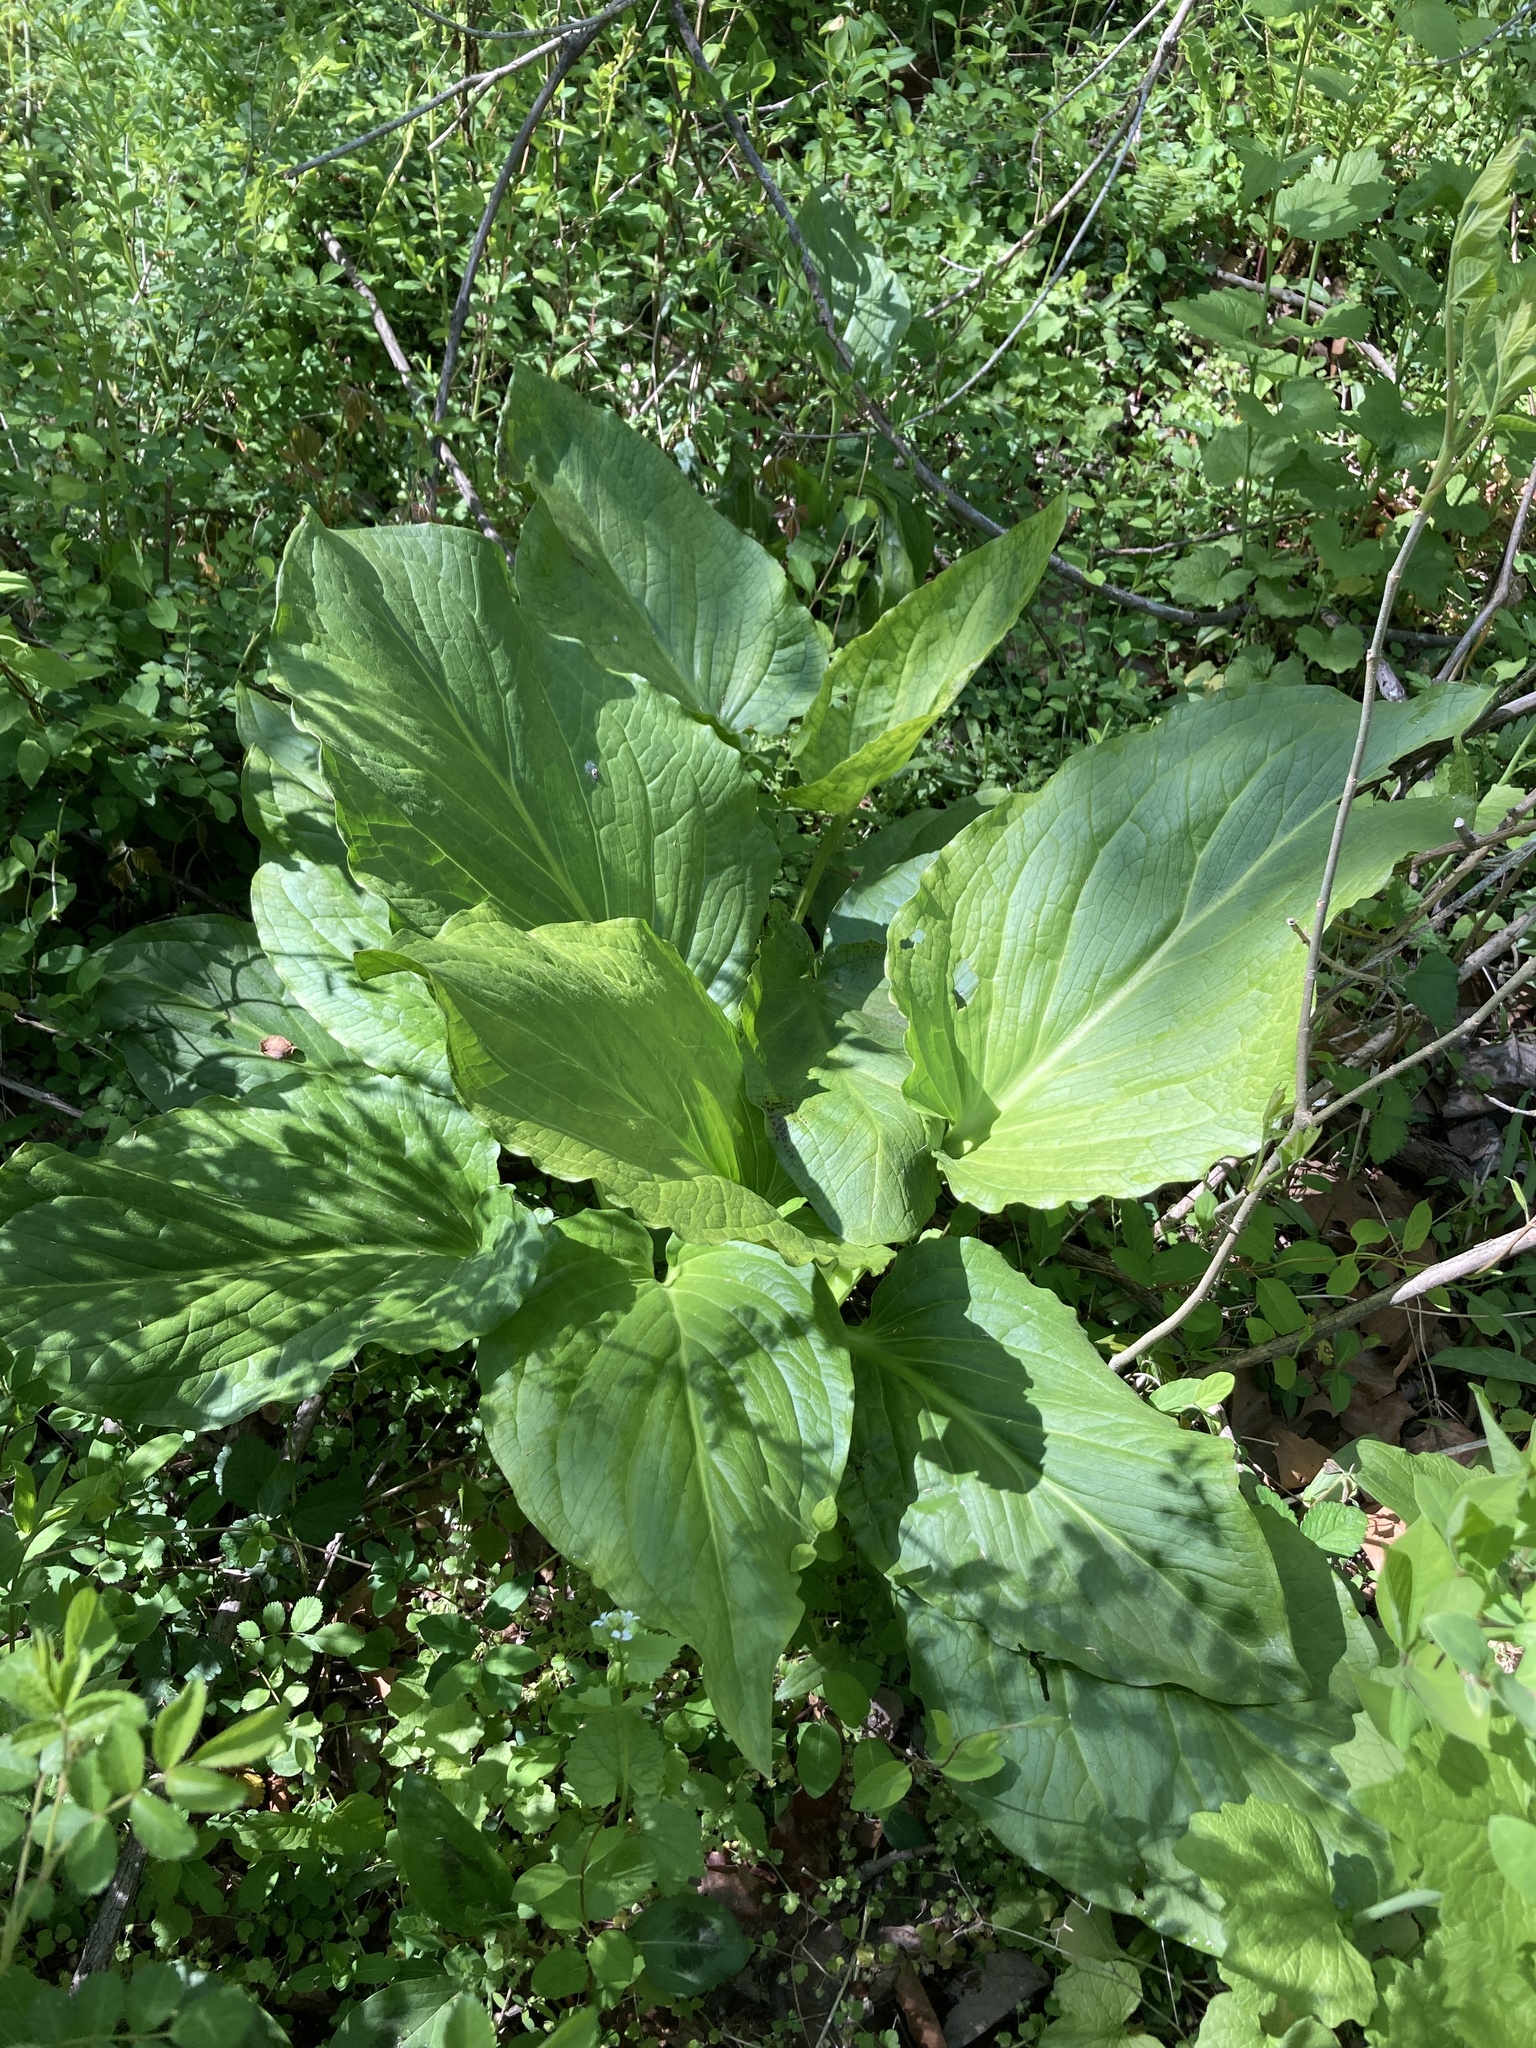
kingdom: Plantae
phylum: Tracheophyta
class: Liliopsida
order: Alismatales
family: Araceae
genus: Symplocarpus
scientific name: Symplocarpus foetidus
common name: Eastern skunk cabbage
